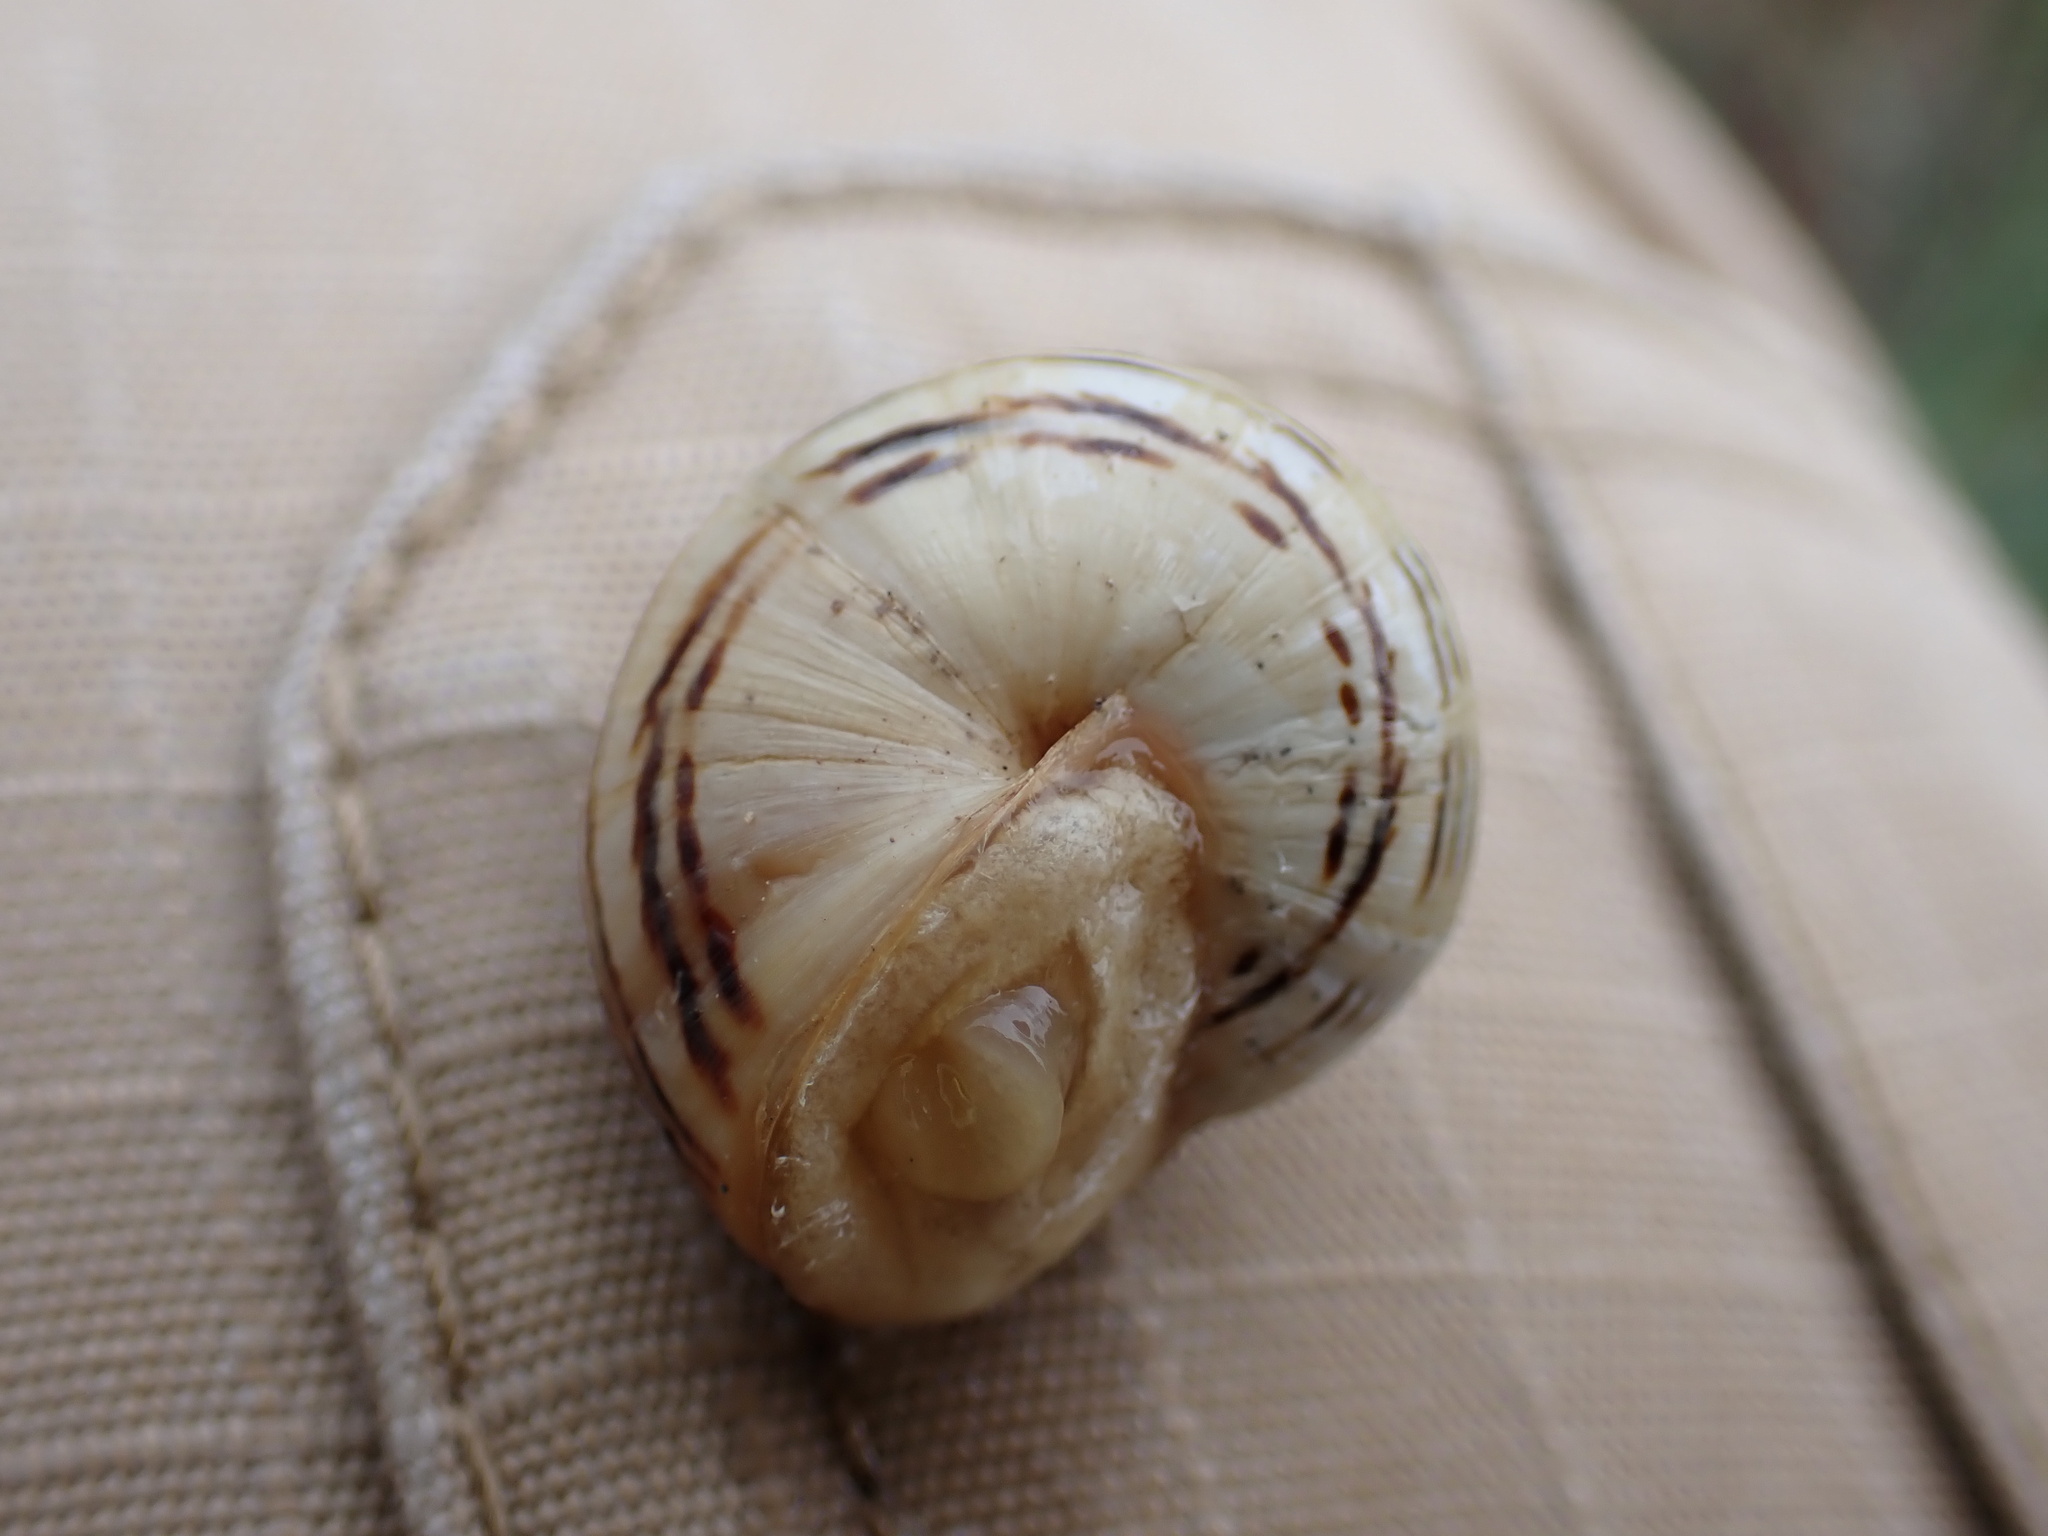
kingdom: Animalia
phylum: Mollusca
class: Gastropoda
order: Stylommatophora
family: Helicidae
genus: Theba
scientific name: Theba pisana
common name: White snail
